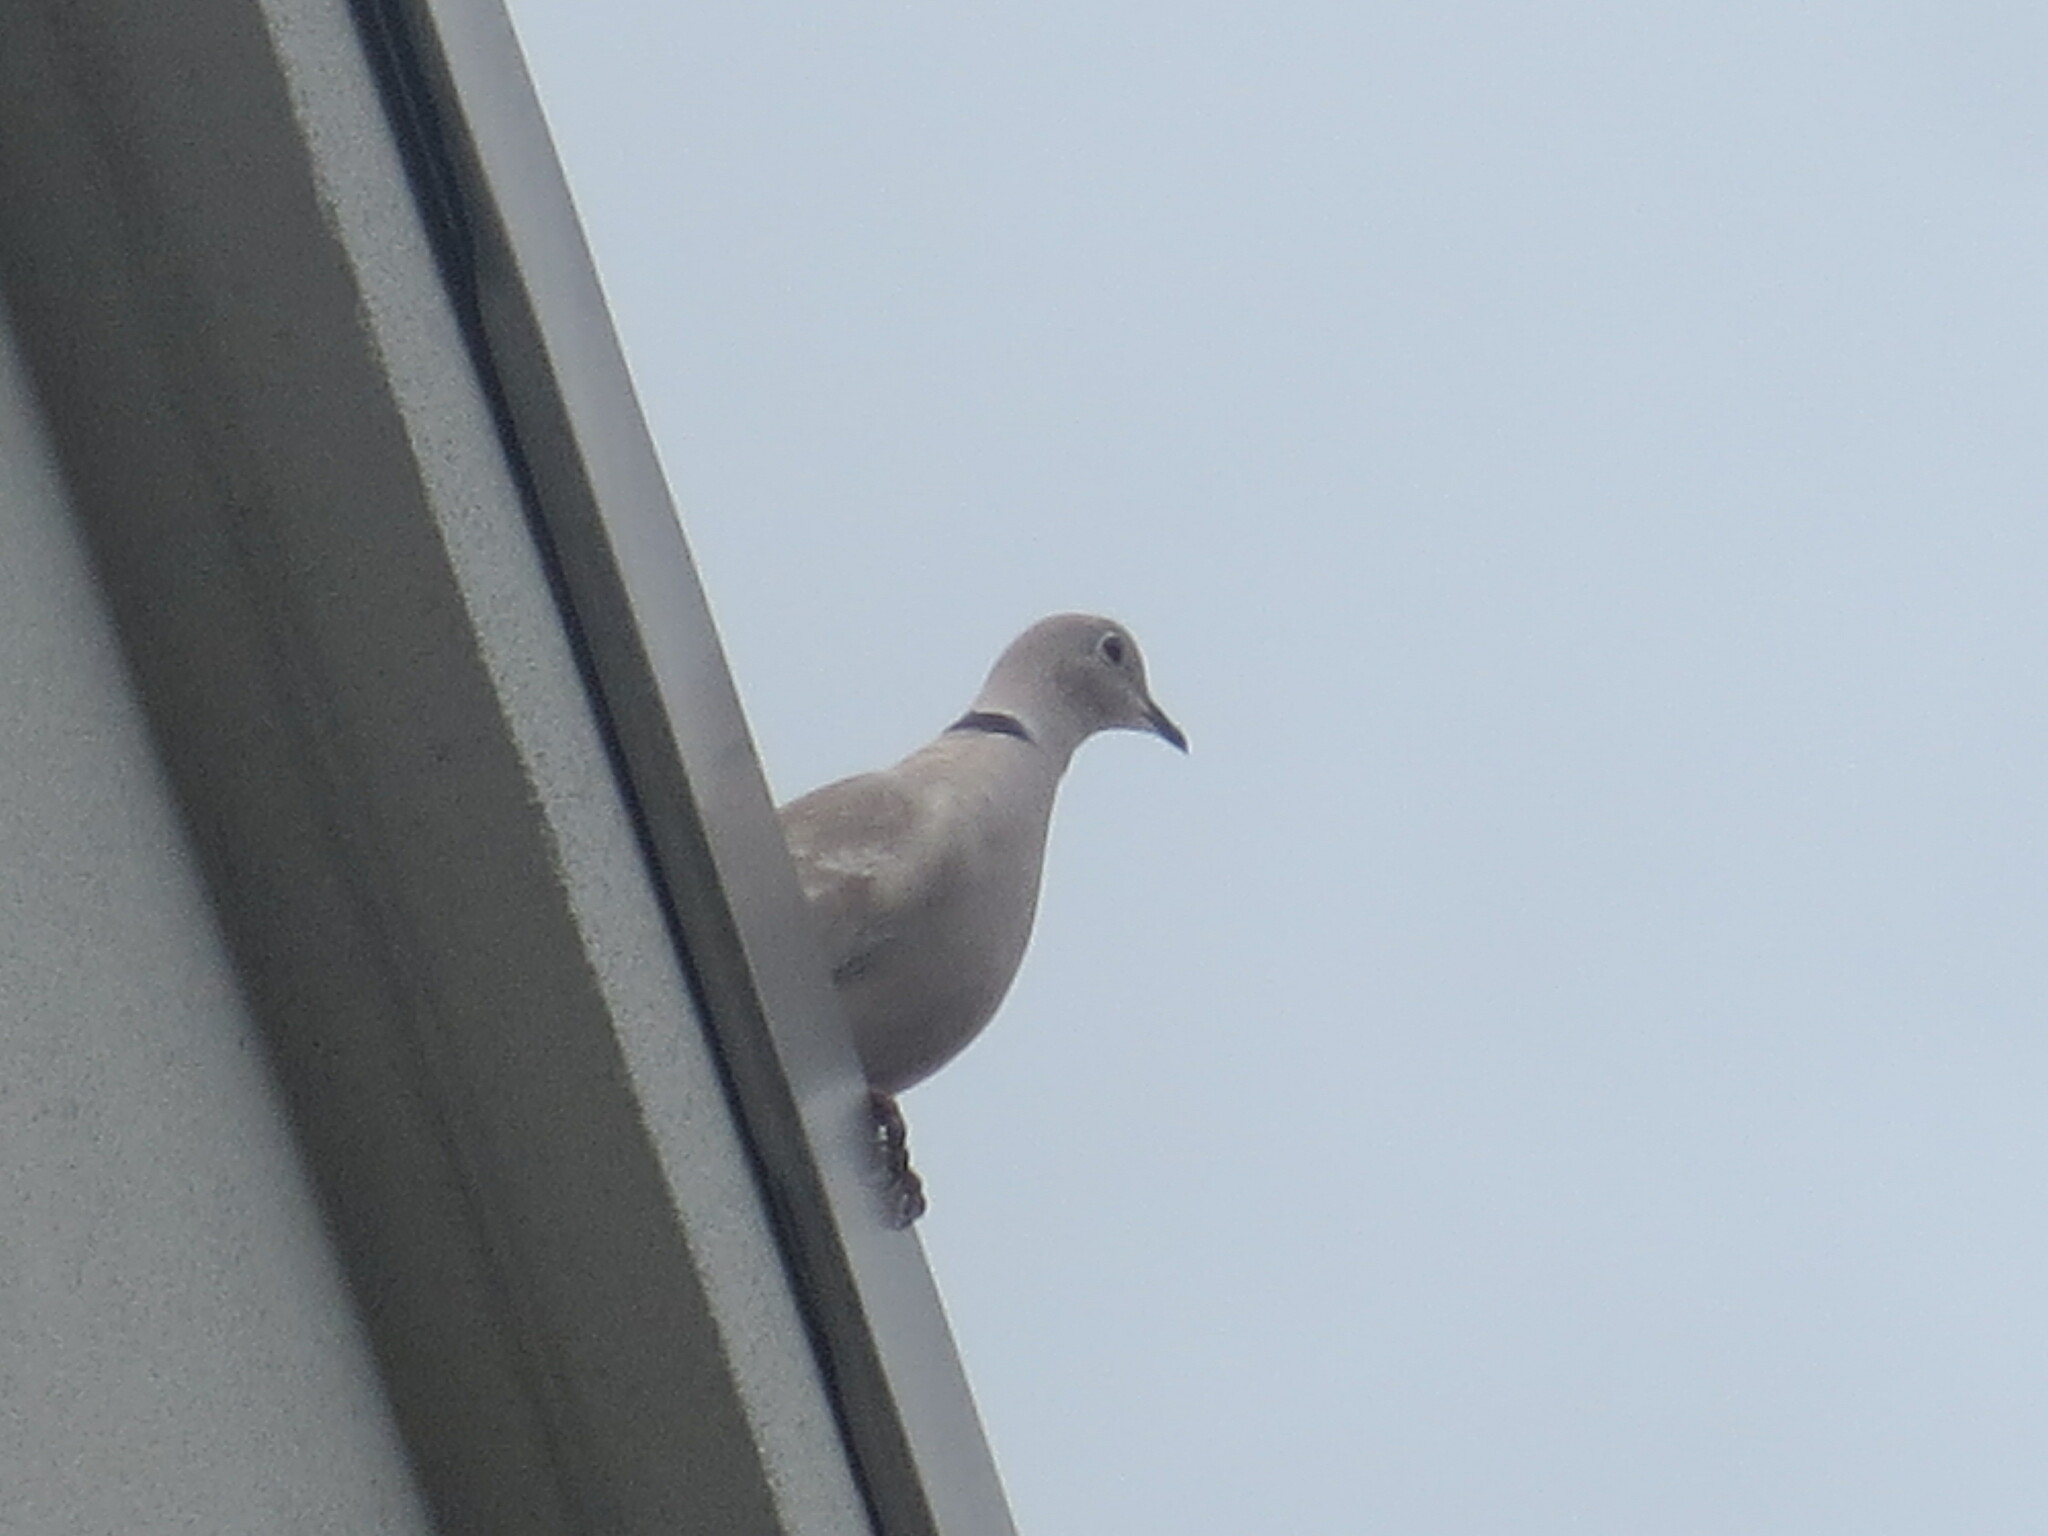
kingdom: Animalia
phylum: Chordata
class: Aves
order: Columbiformes
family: Columbidae
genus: Streptopelia
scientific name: Streptopelia decaocto
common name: Eurasian collared dove
